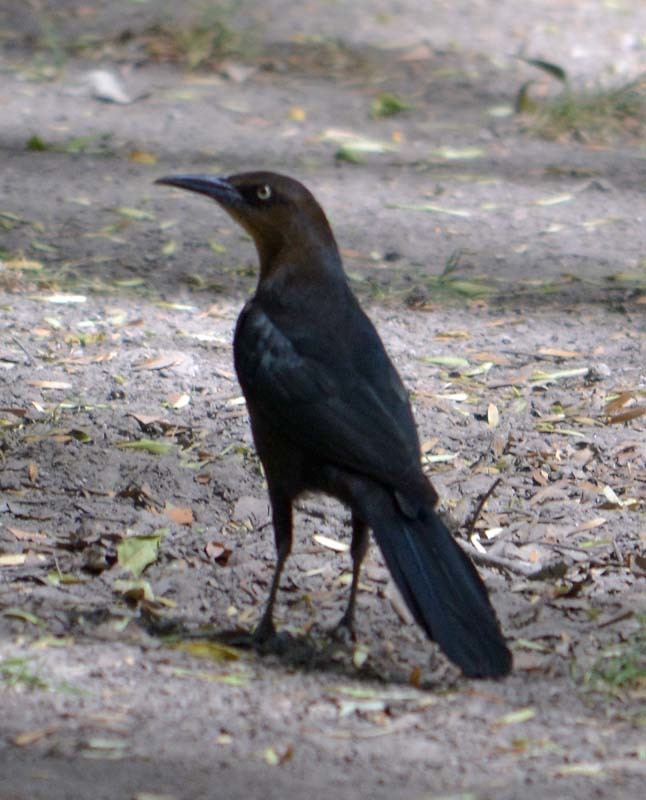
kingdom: Animalia
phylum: Chordata
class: Aves
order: Passeriformes
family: Icteridae
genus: Quiscalus
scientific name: Quiscalus mexicanus
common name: Great-tailed grackle
